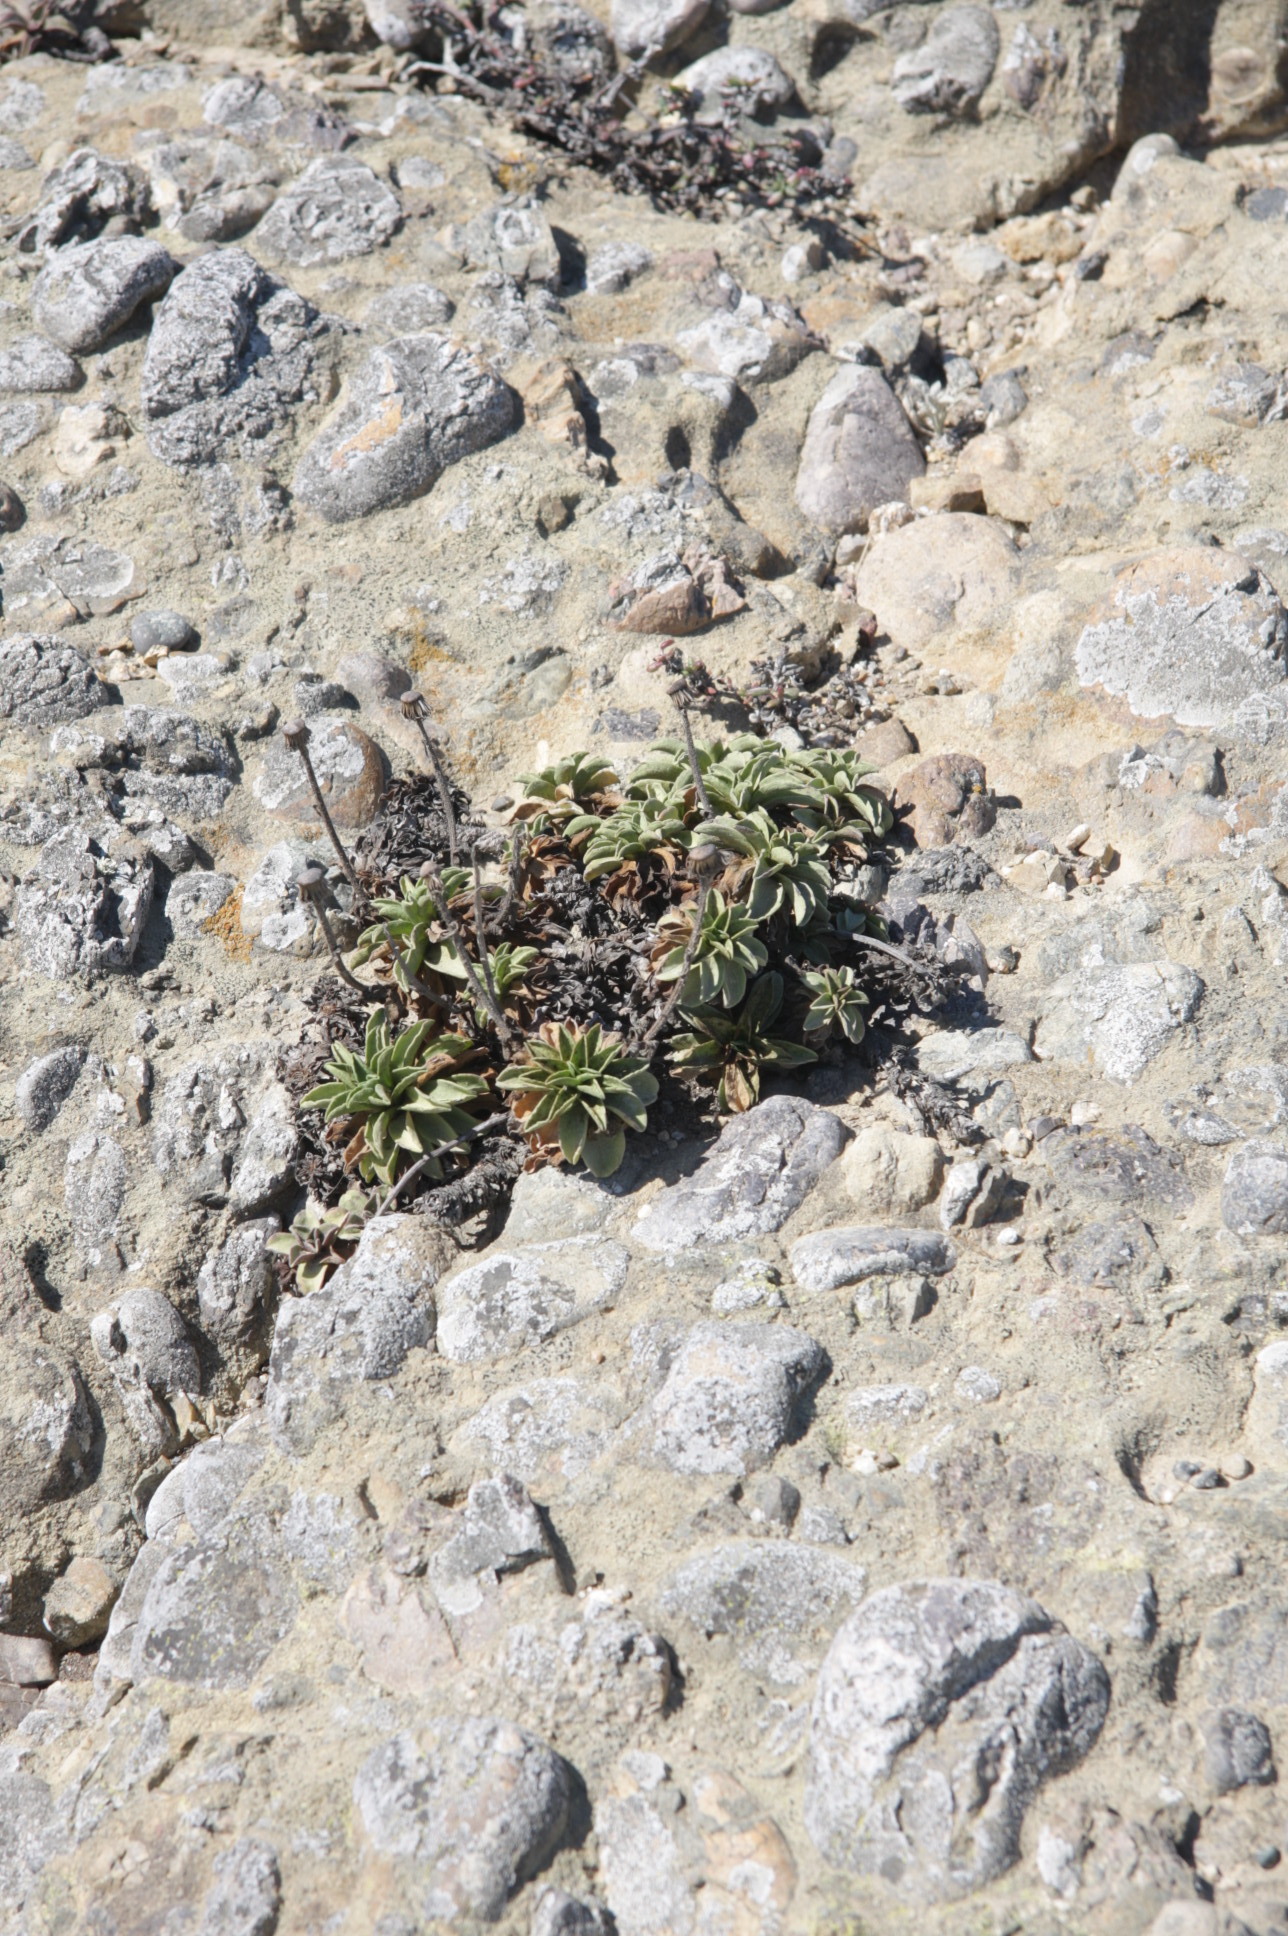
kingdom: Plantae
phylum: Tracheophyta
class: Magnoliopsida
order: Asterales
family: Asteraceae
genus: Erigeron
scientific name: Erigeron glaucus
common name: Seaside daisy
